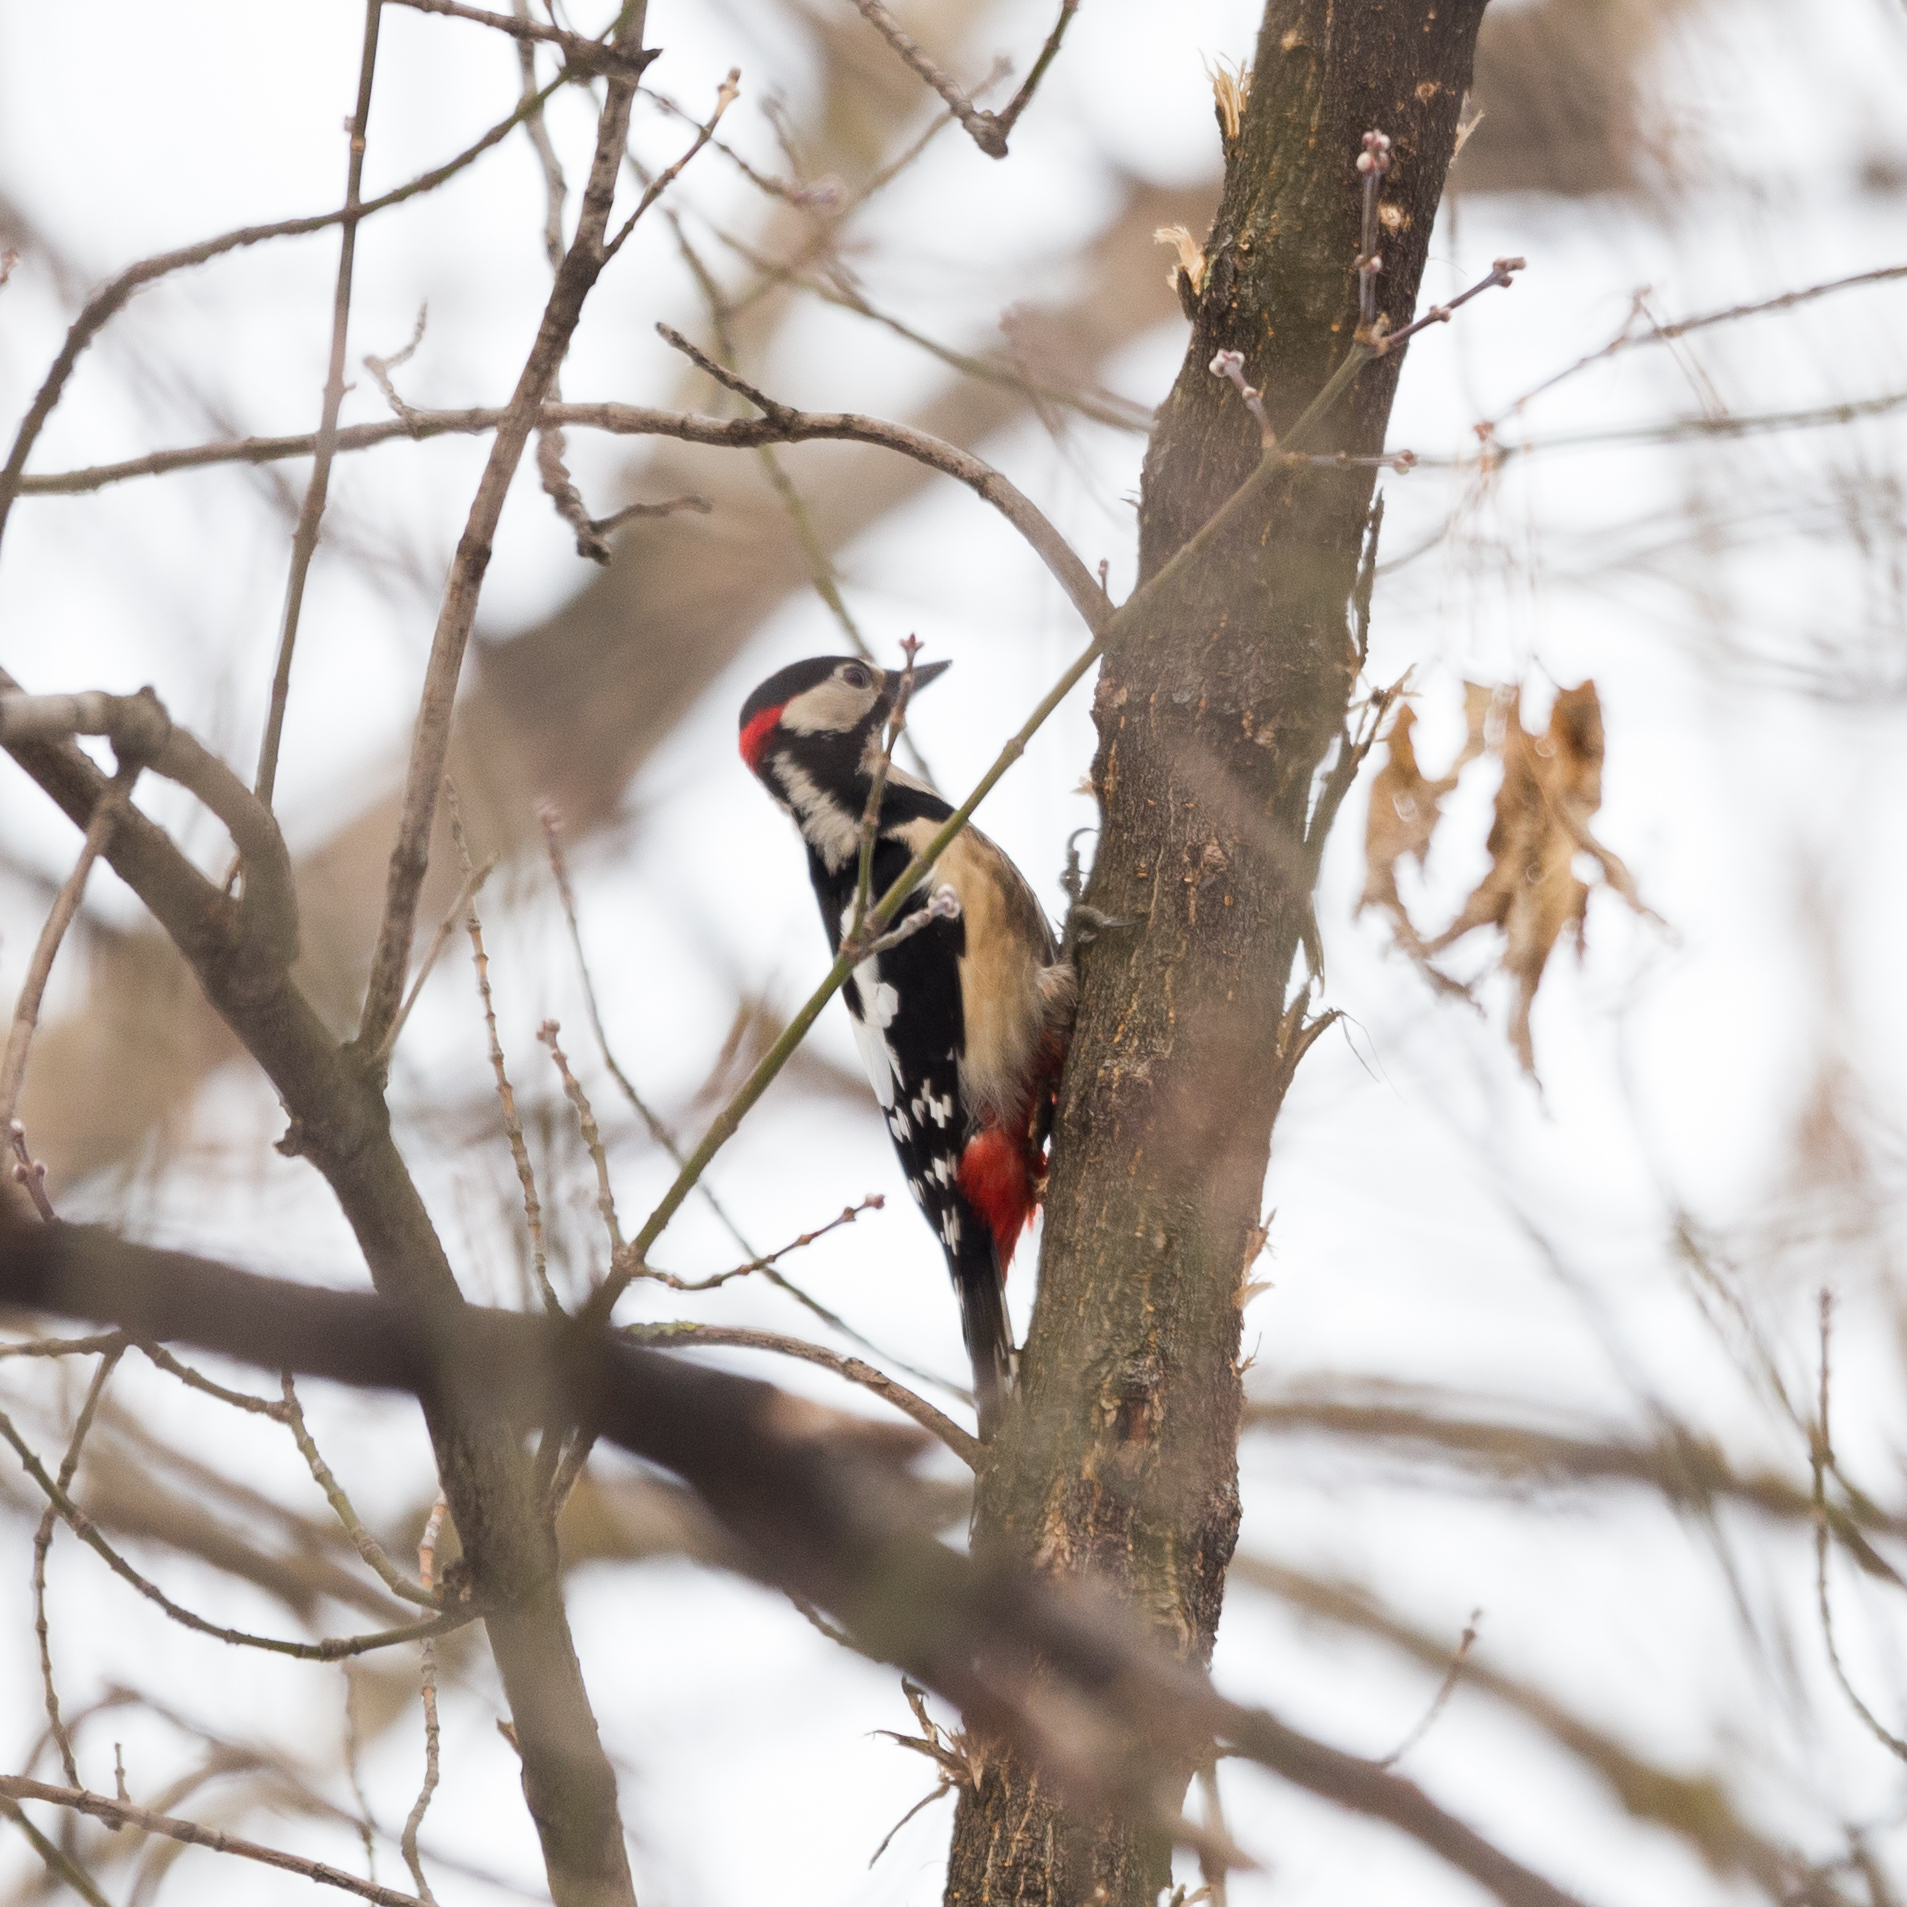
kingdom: Animalia
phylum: Chordata
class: Aves
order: Piciformes
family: Picidae
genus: Dendrocopos
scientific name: Dendrocopos major
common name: Great spotted woodpecker
